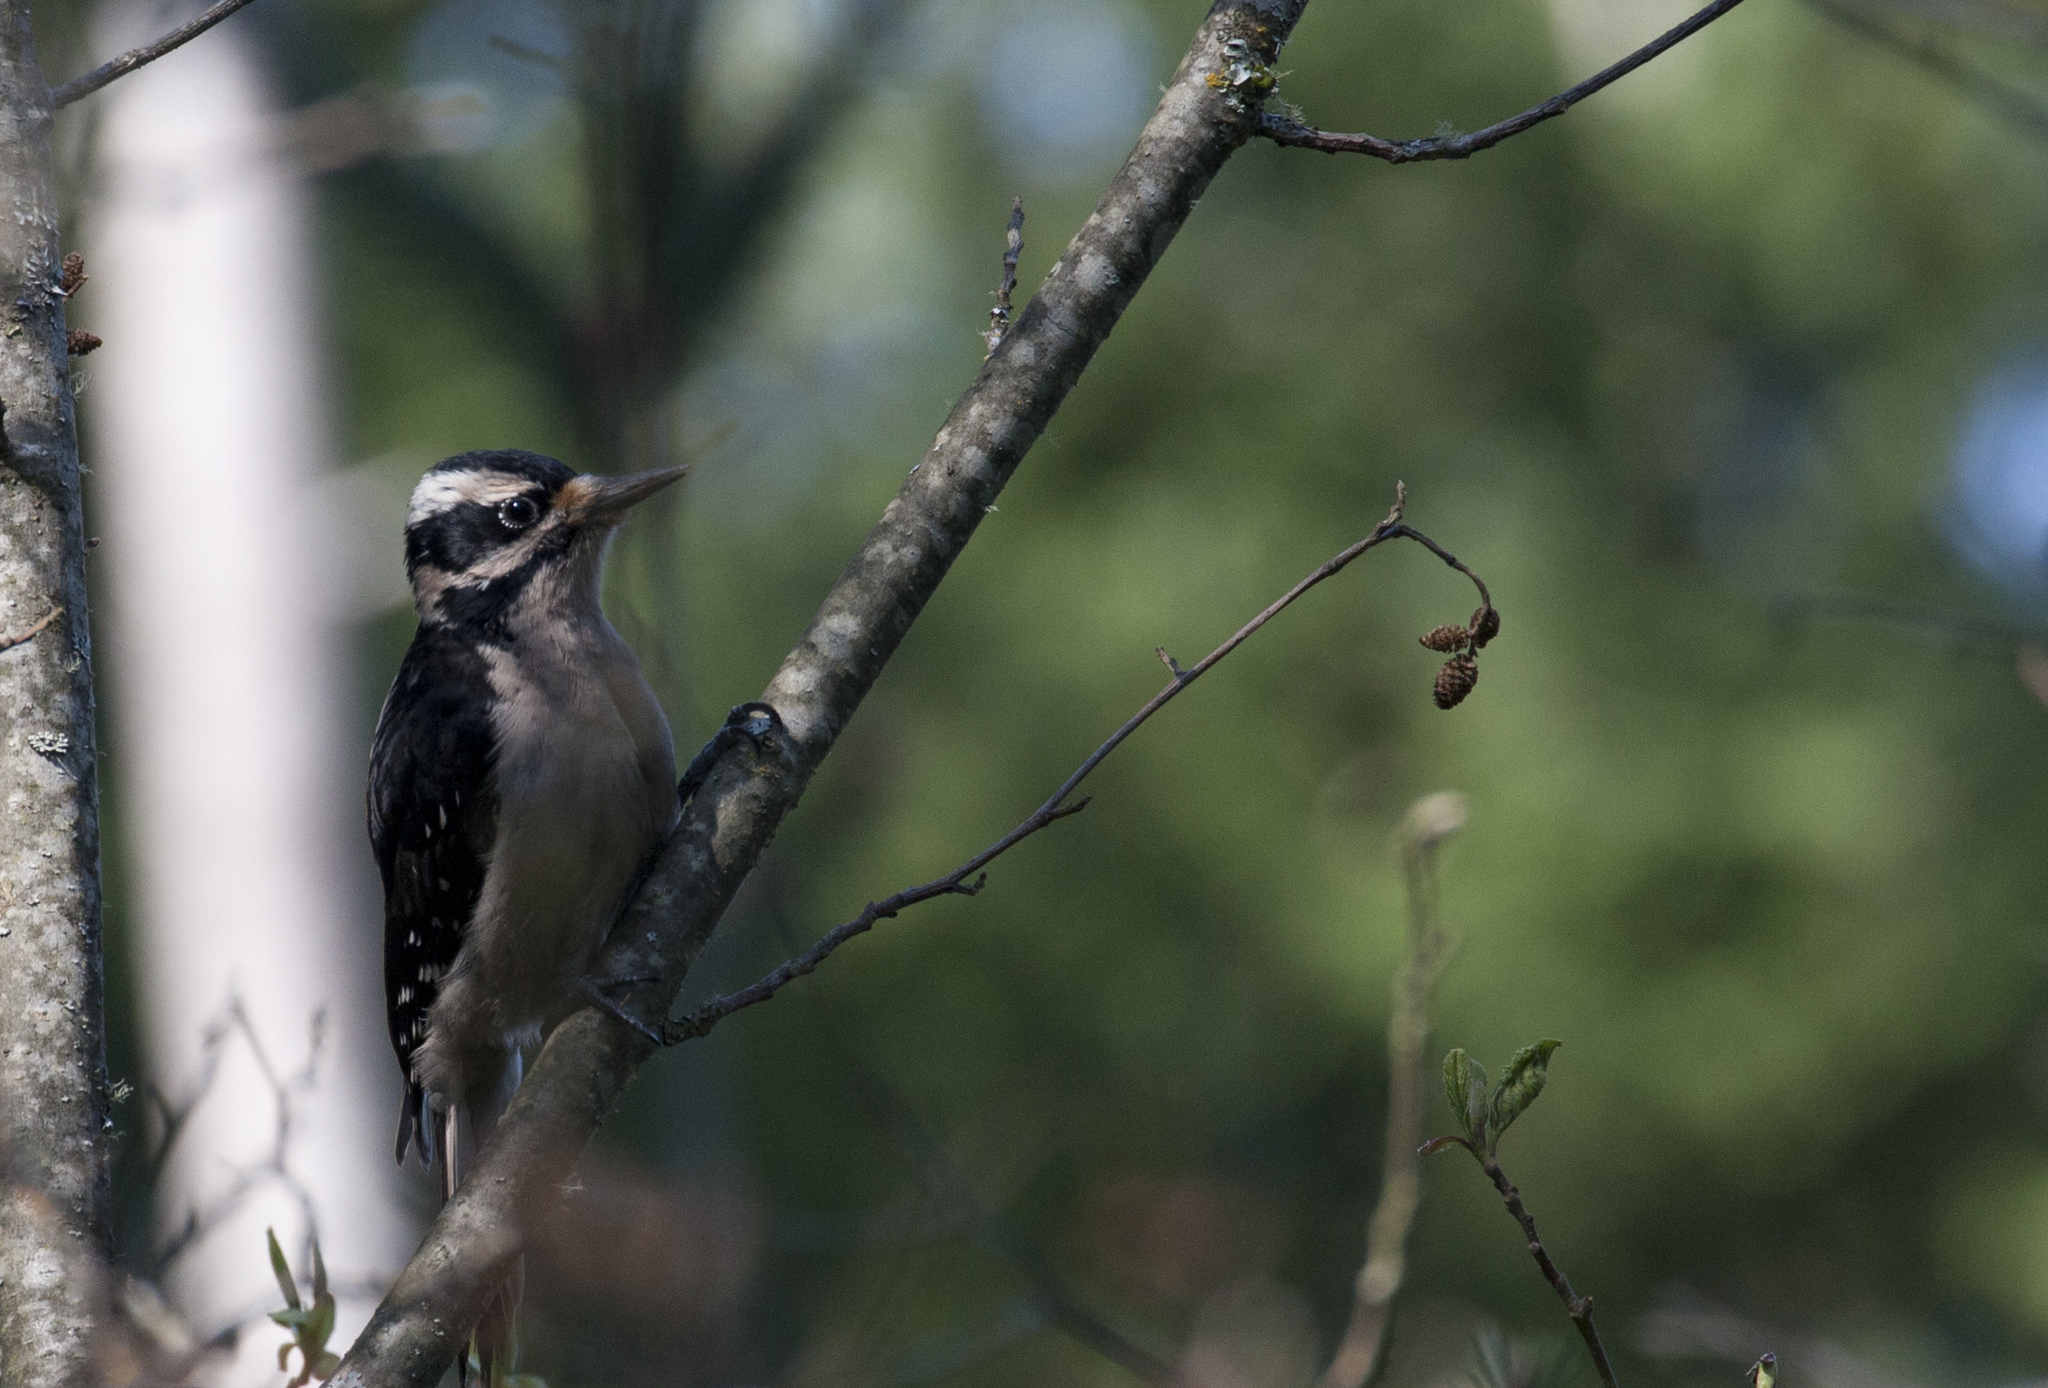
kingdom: Animalia
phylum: Chordata
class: Aves
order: Piciformes
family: Picidae
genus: Dryobates
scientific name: Dryobates pubescens
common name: Downy woodpecker
